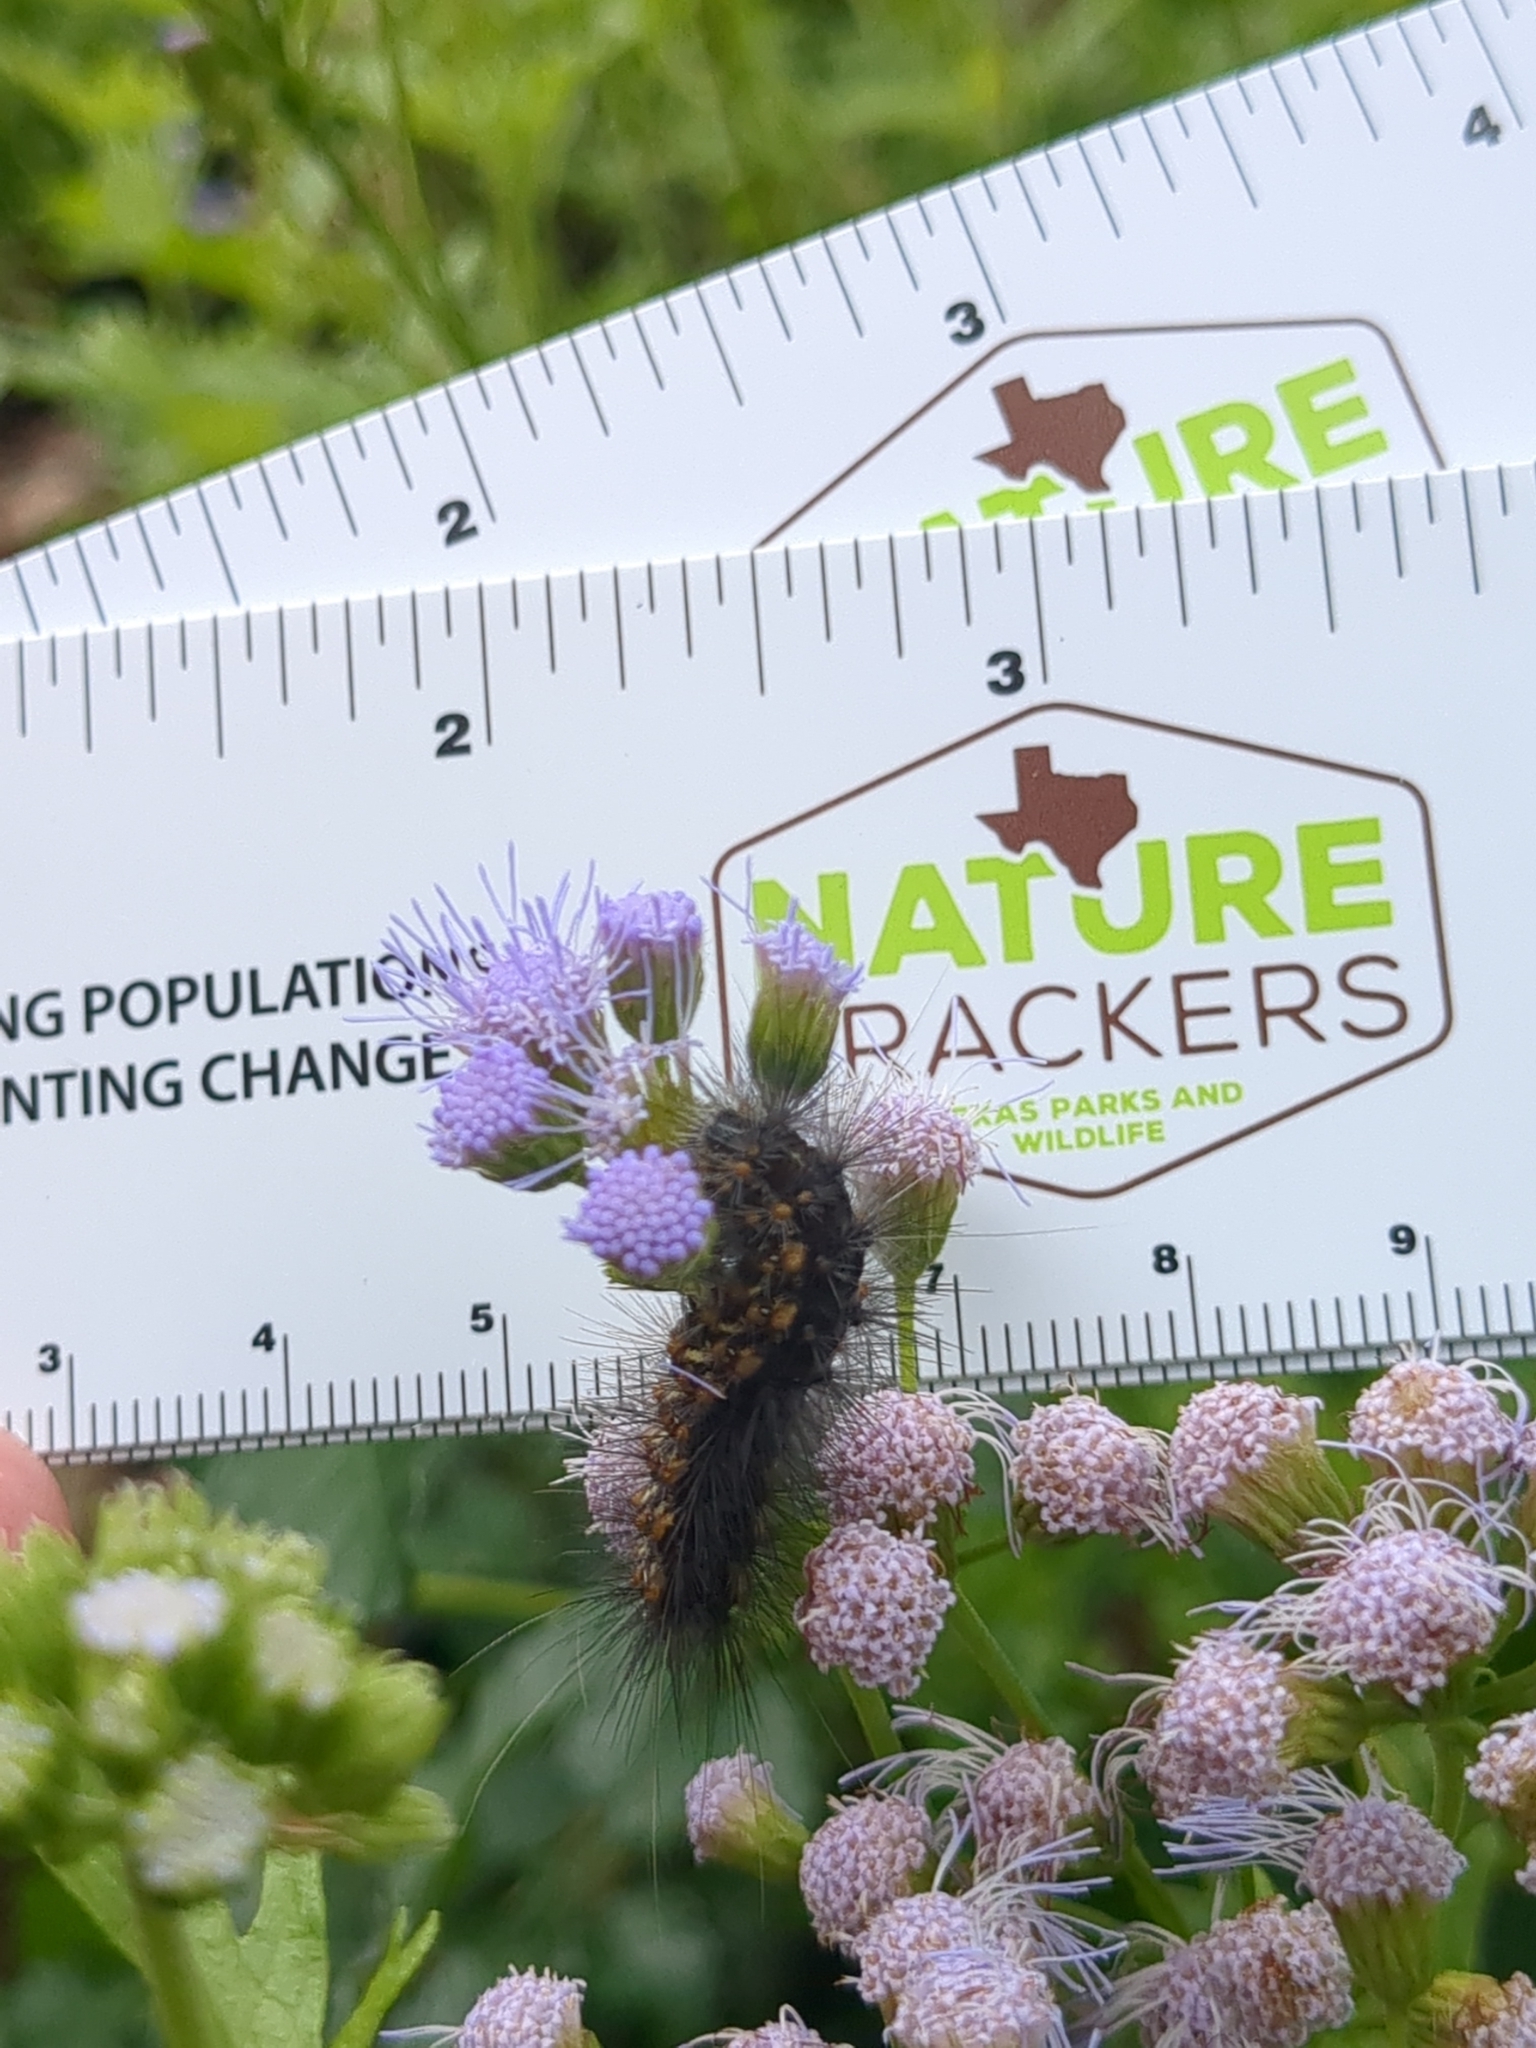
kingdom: Animalia
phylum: Arthropoda
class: Insecta
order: Lepidoptera
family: Erebidae
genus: Estigmene
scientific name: Estigmene acrea
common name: Salt marsh moth
